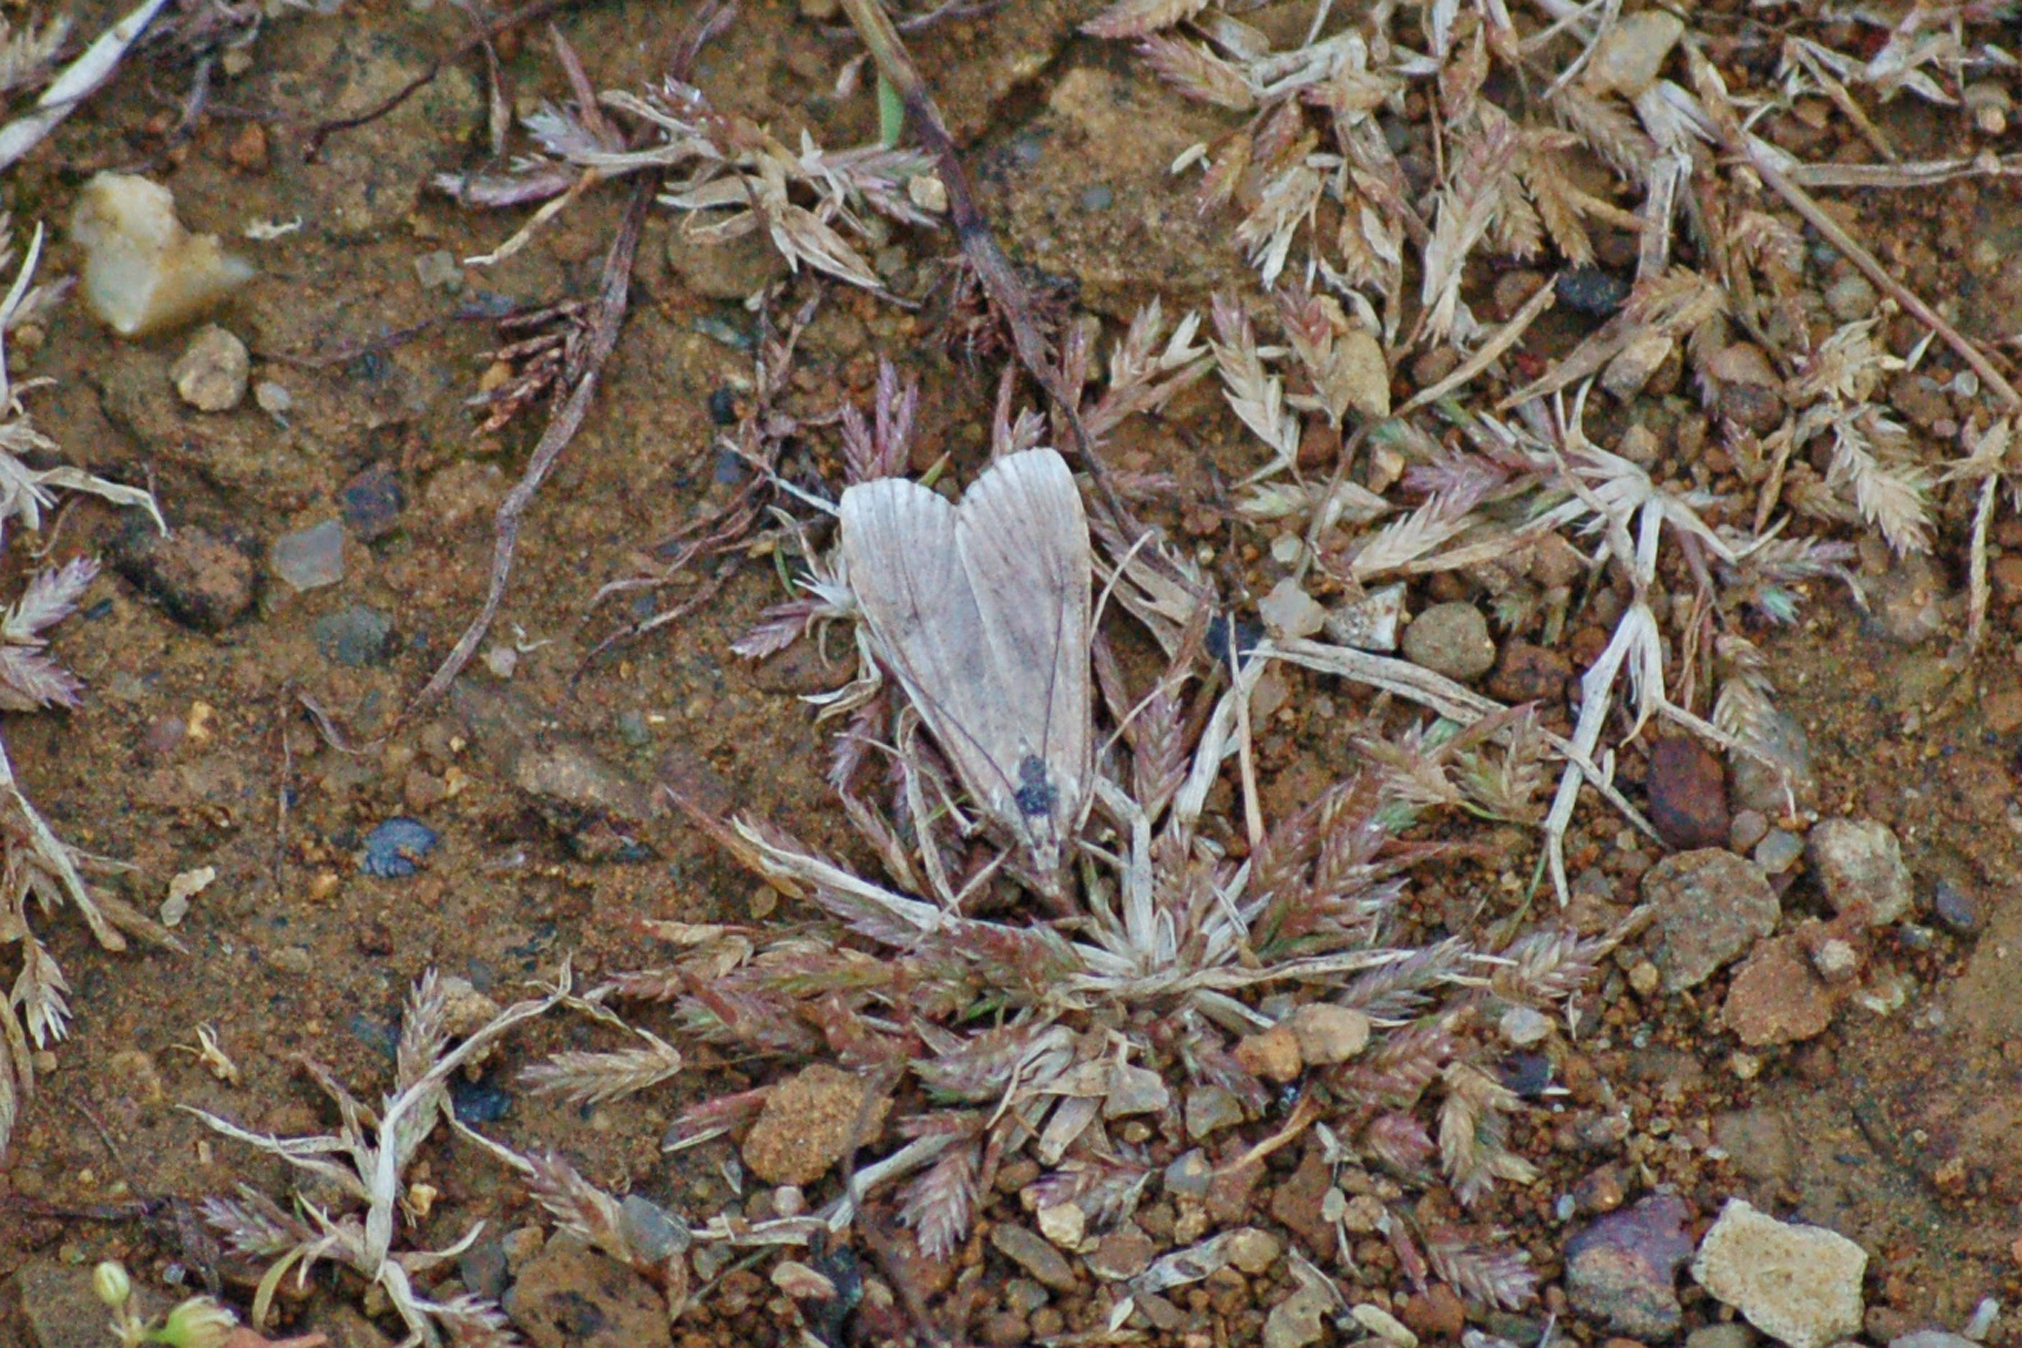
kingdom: Animalia
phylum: Arthropoda
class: Insecta
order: Lepidoptera
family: Crambidae
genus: Nomophila
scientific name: Nomophila nearctica
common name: American rush veneer
